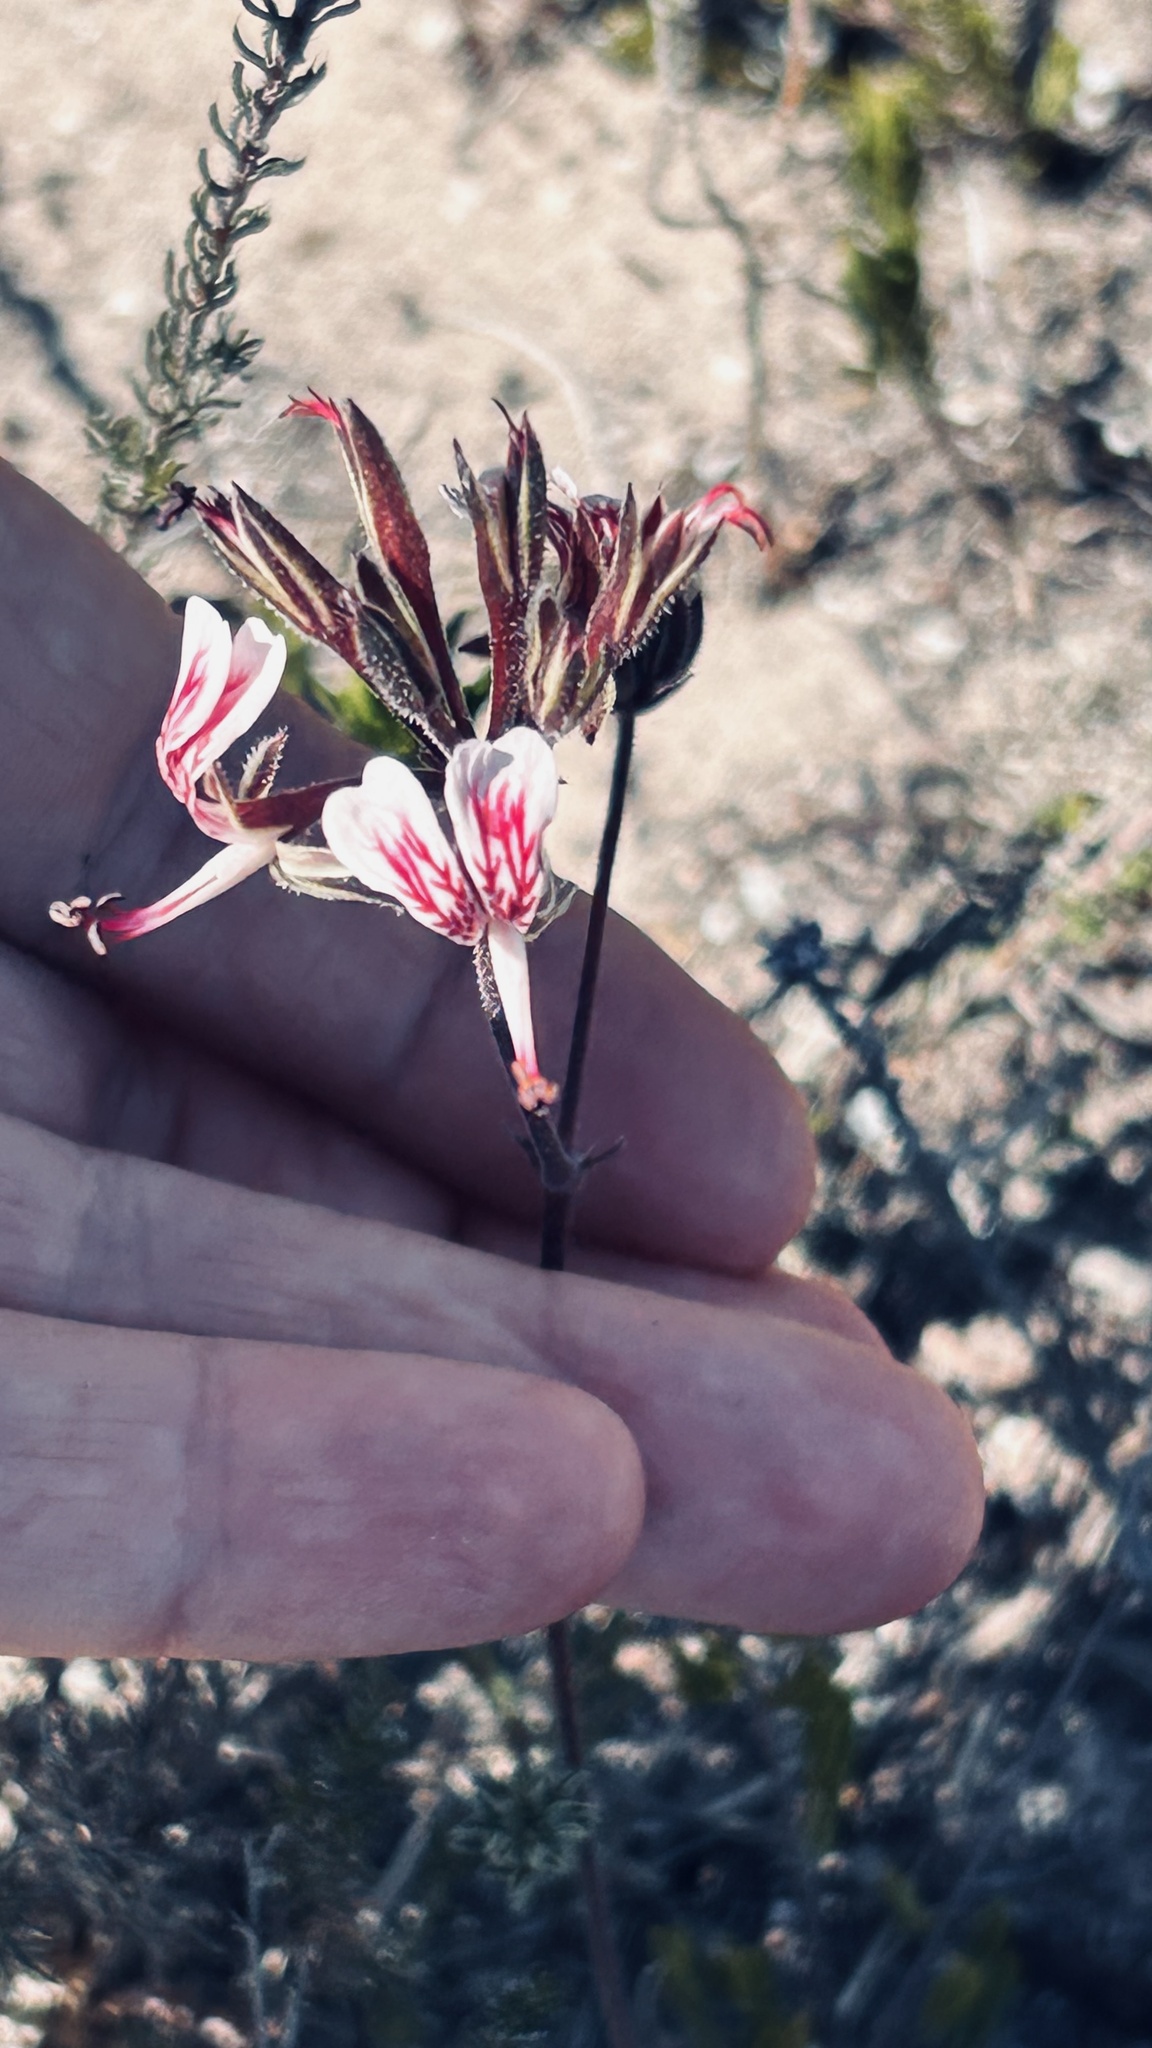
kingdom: Plantae
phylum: Tracheophyta
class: Magnoliopsida
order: Geraniales
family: Geraniaceae
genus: Pelargonium
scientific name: Pelargonium dipetalum
